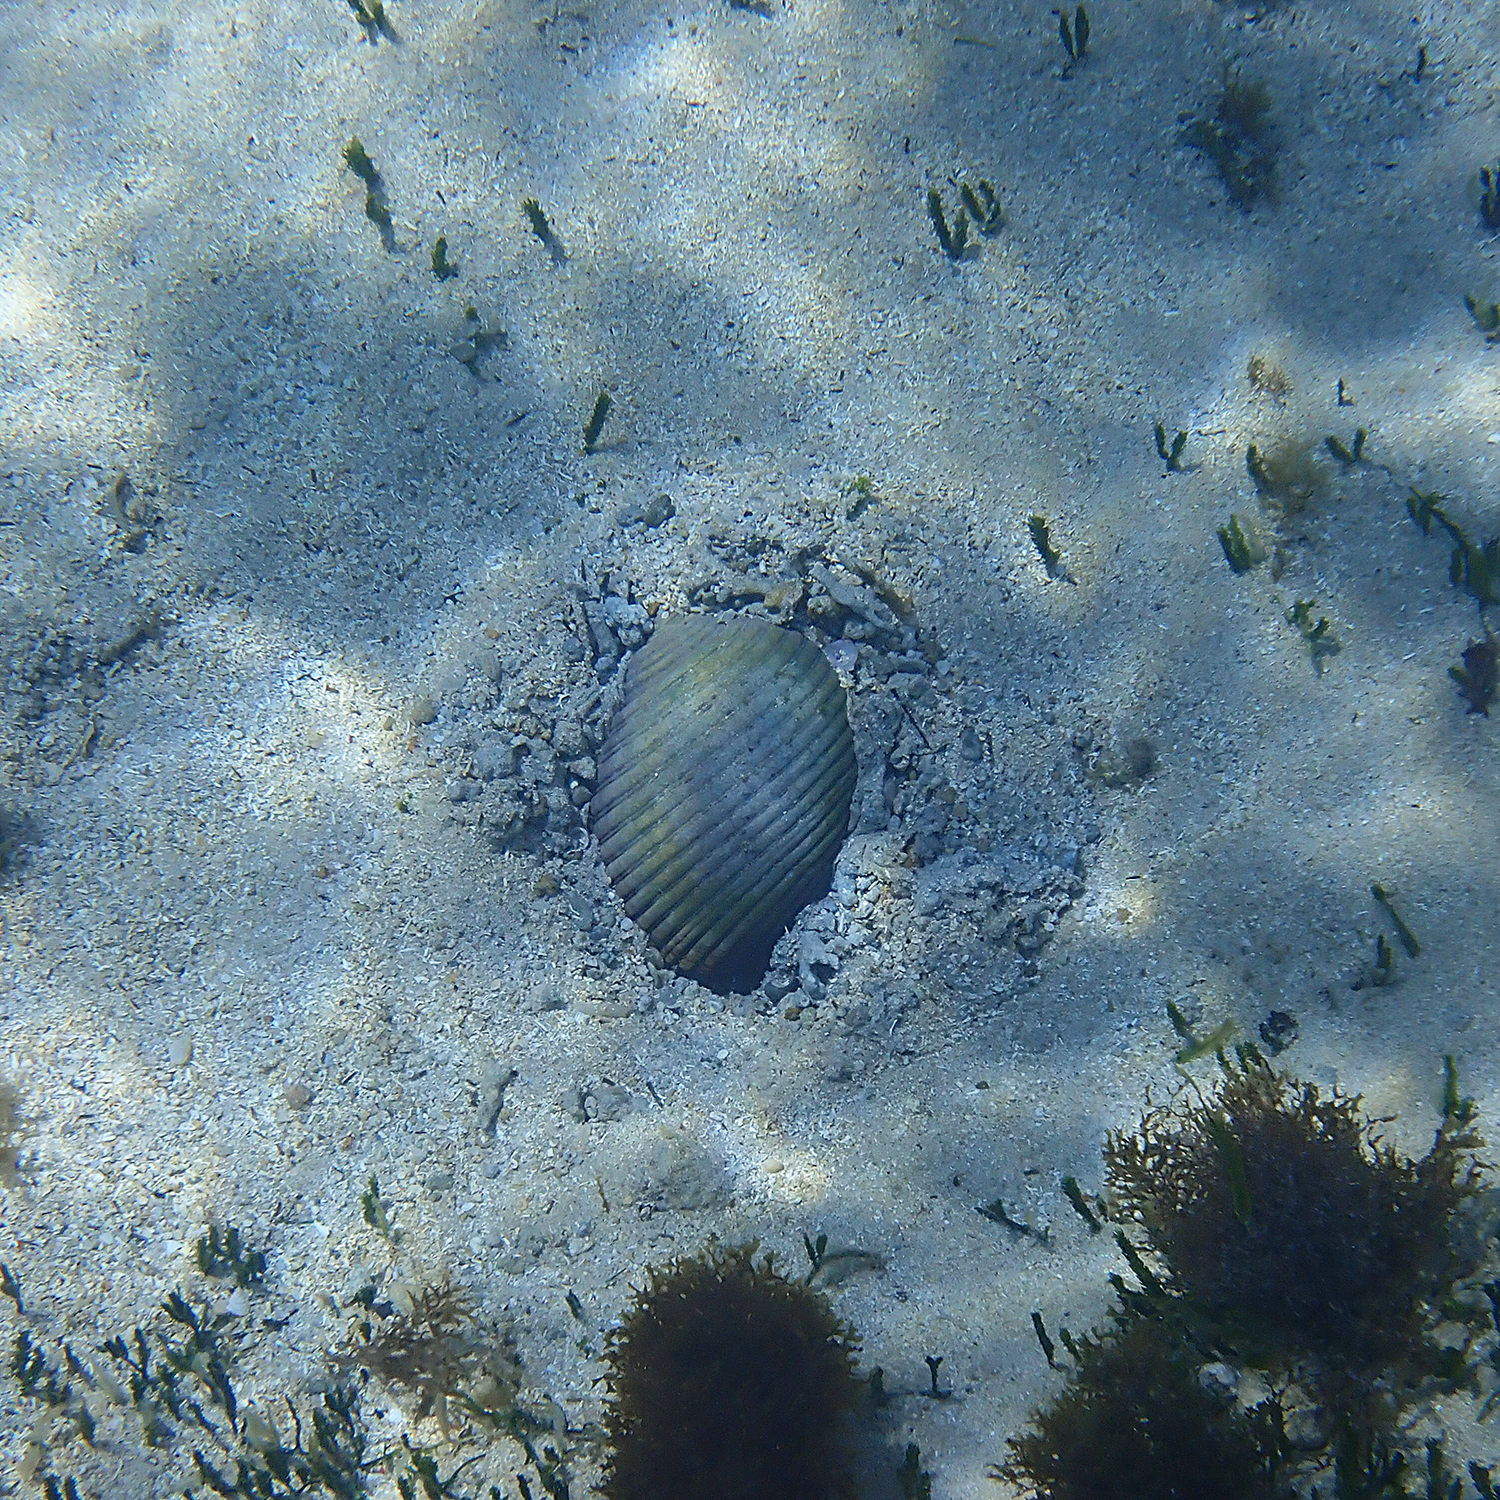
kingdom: Animalia
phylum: Mollusca
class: Gastropoda
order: Littorinimorpha
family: Tonnidae
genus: Tonna
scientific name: Tonna melanostoma
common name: Black mouthed tun
